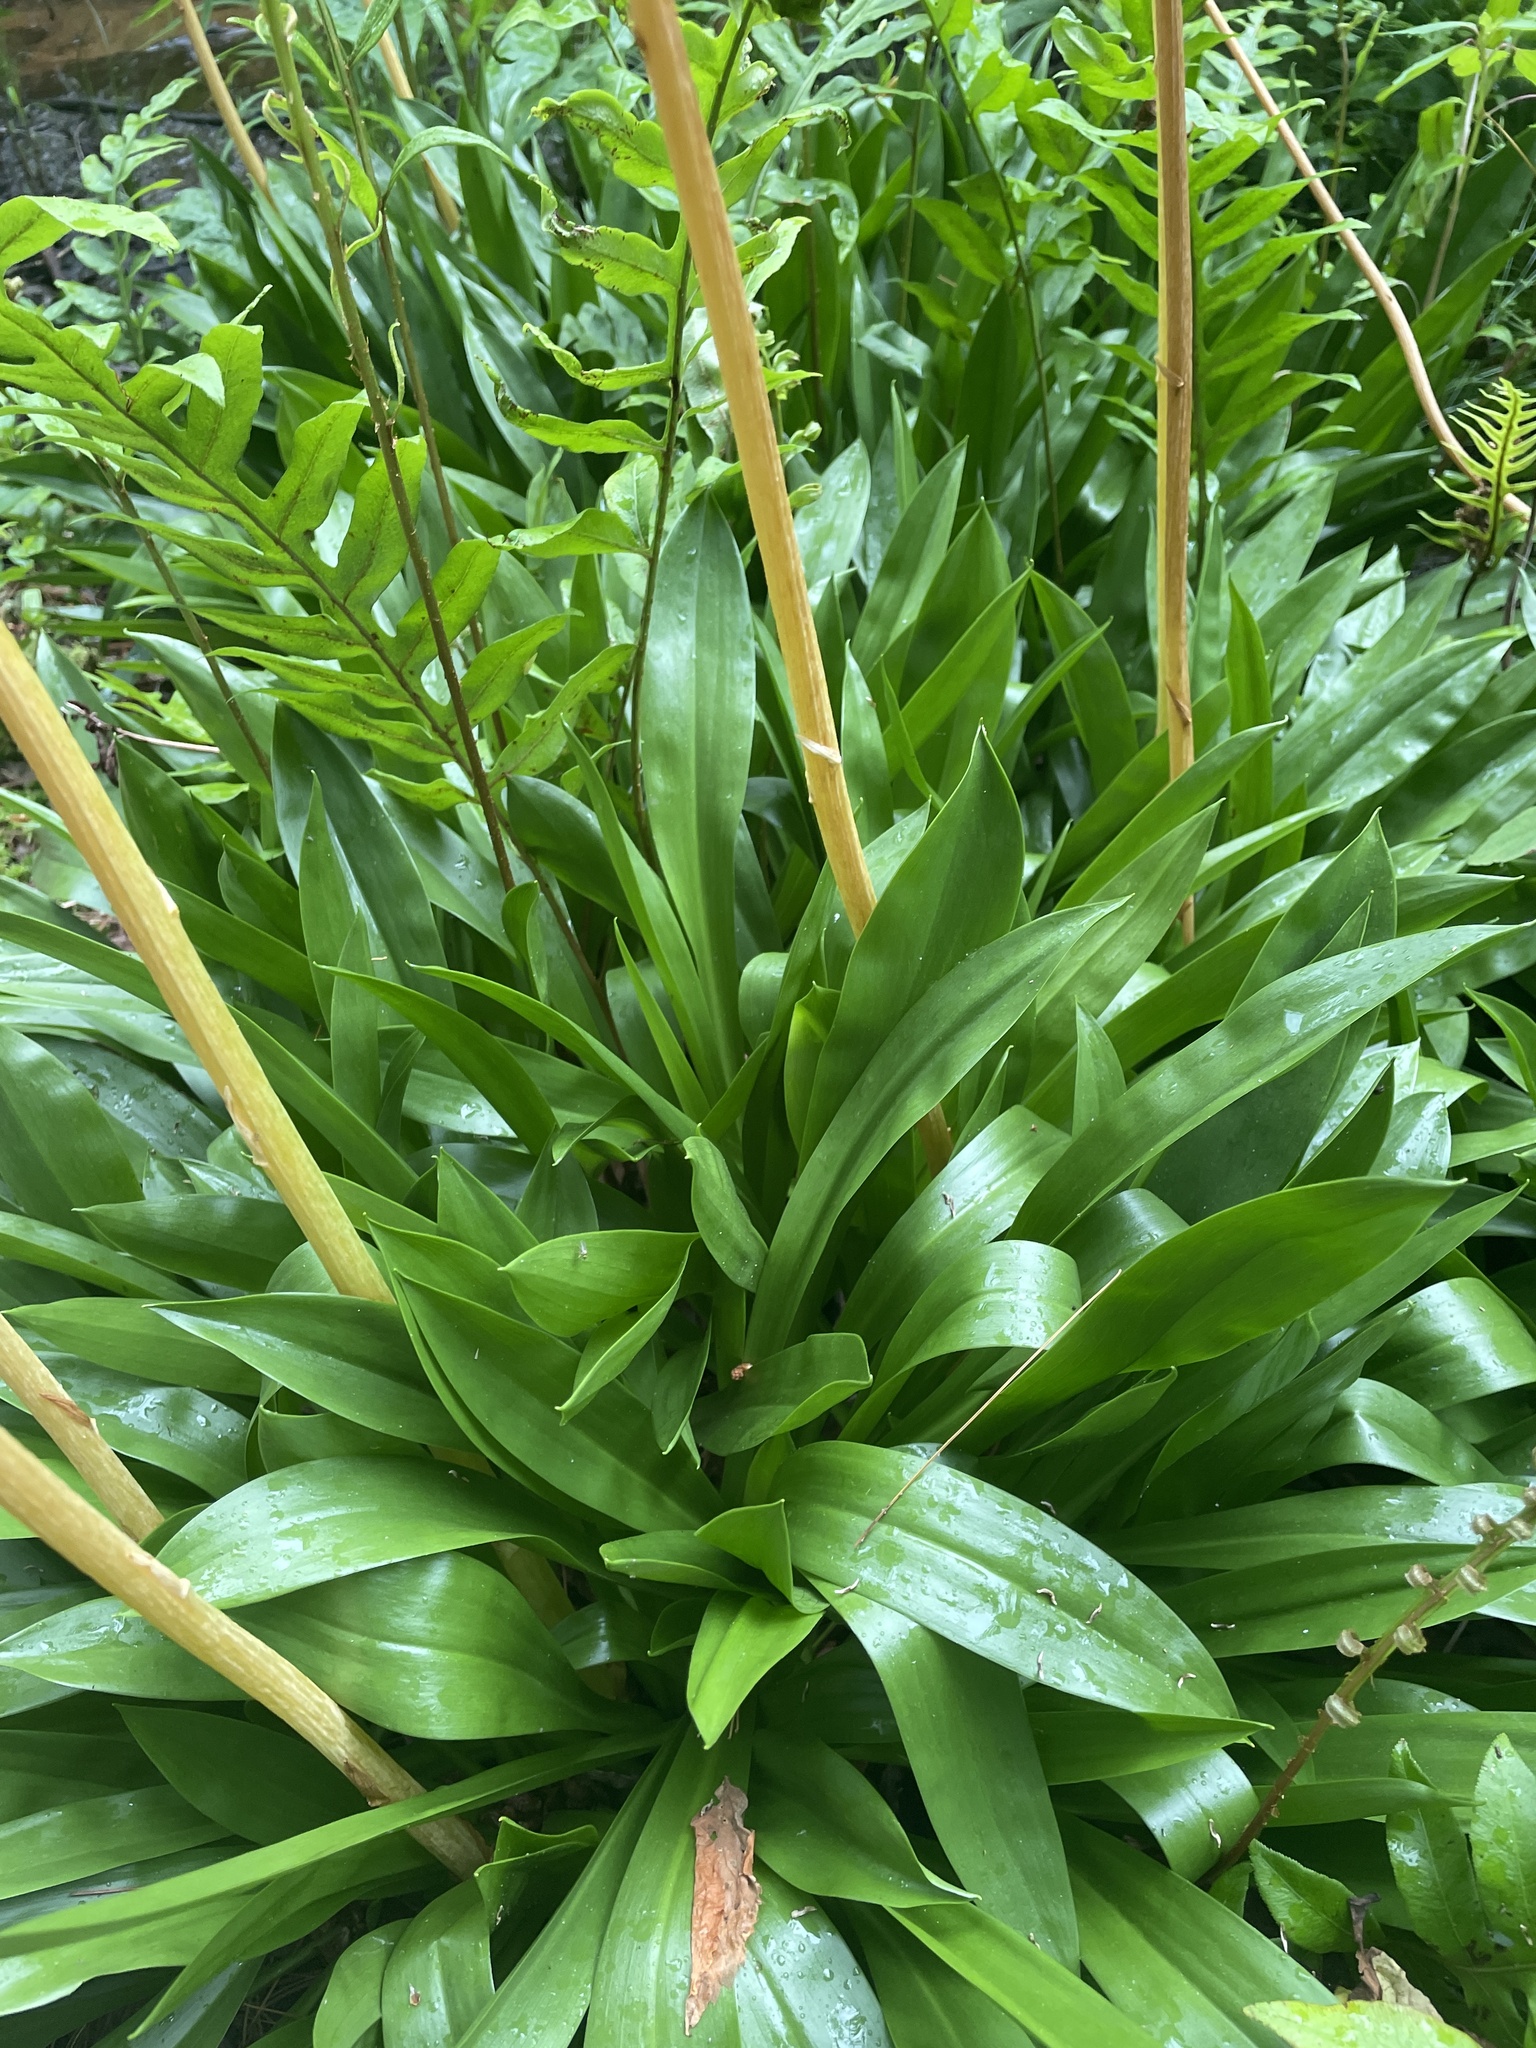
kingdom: Plantae
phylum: Tracheophyta
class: Liliopsida
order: Liliales
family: Melanthiaceae
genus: Helonias
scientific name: Helonias bullata
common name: Swamp-pink
